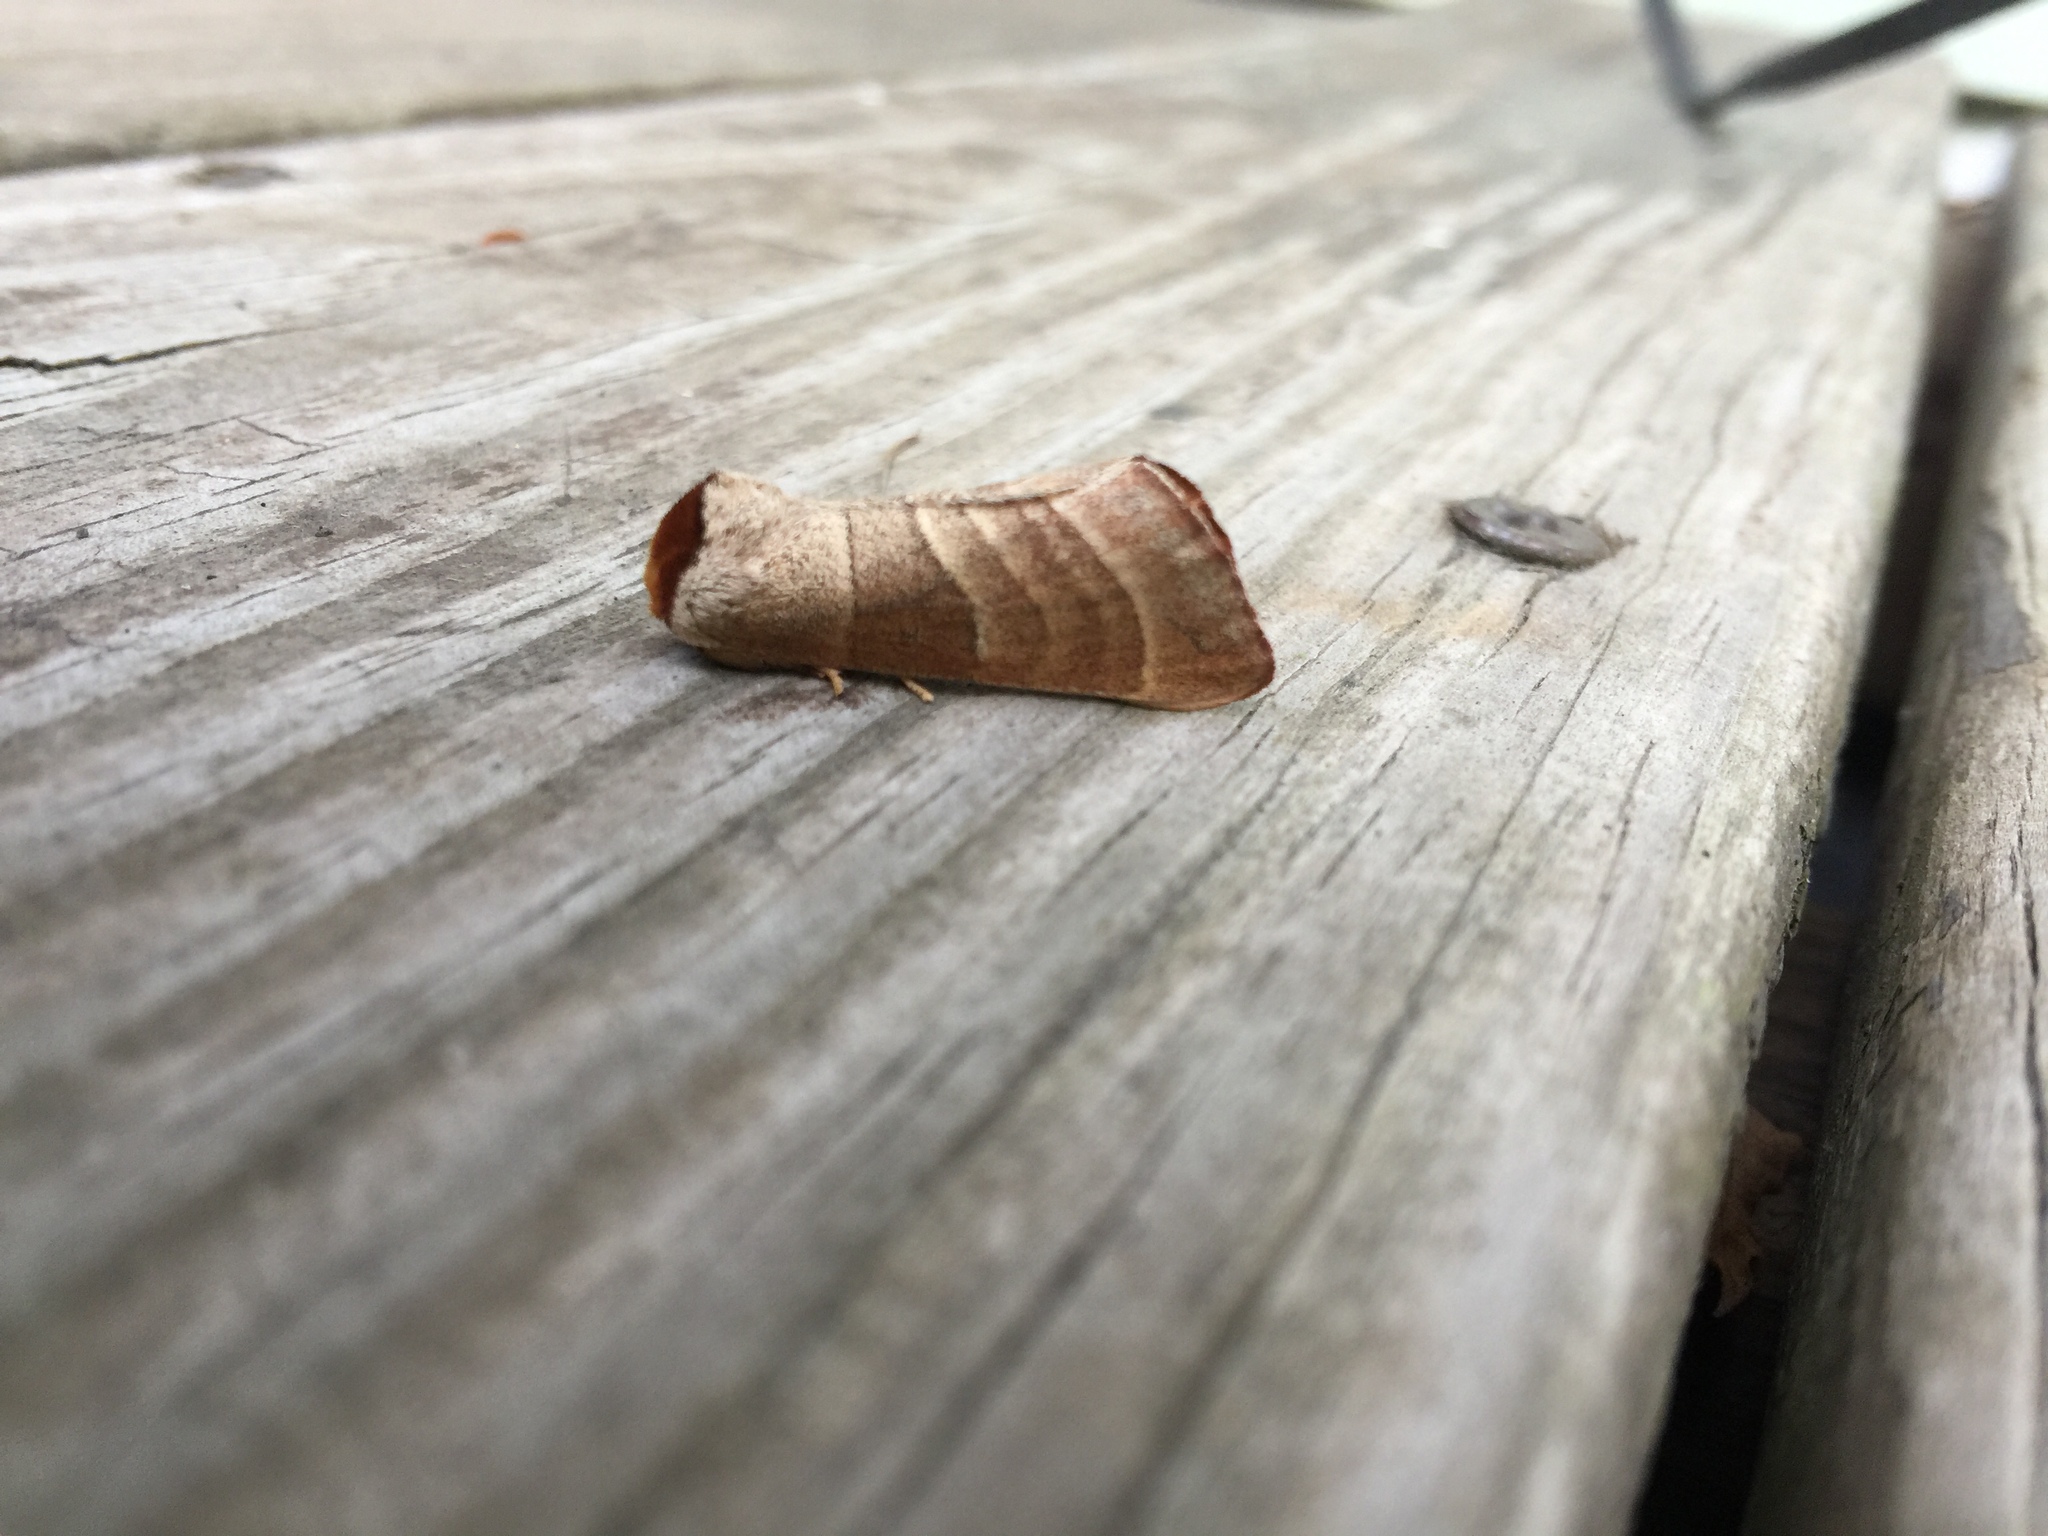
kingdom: Animalia
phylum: Arthropoda
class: Insecta
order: Lepidoptera
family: Notodontidae
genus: Datana
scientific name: Datana integerrima
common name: Walnut caterpillar
